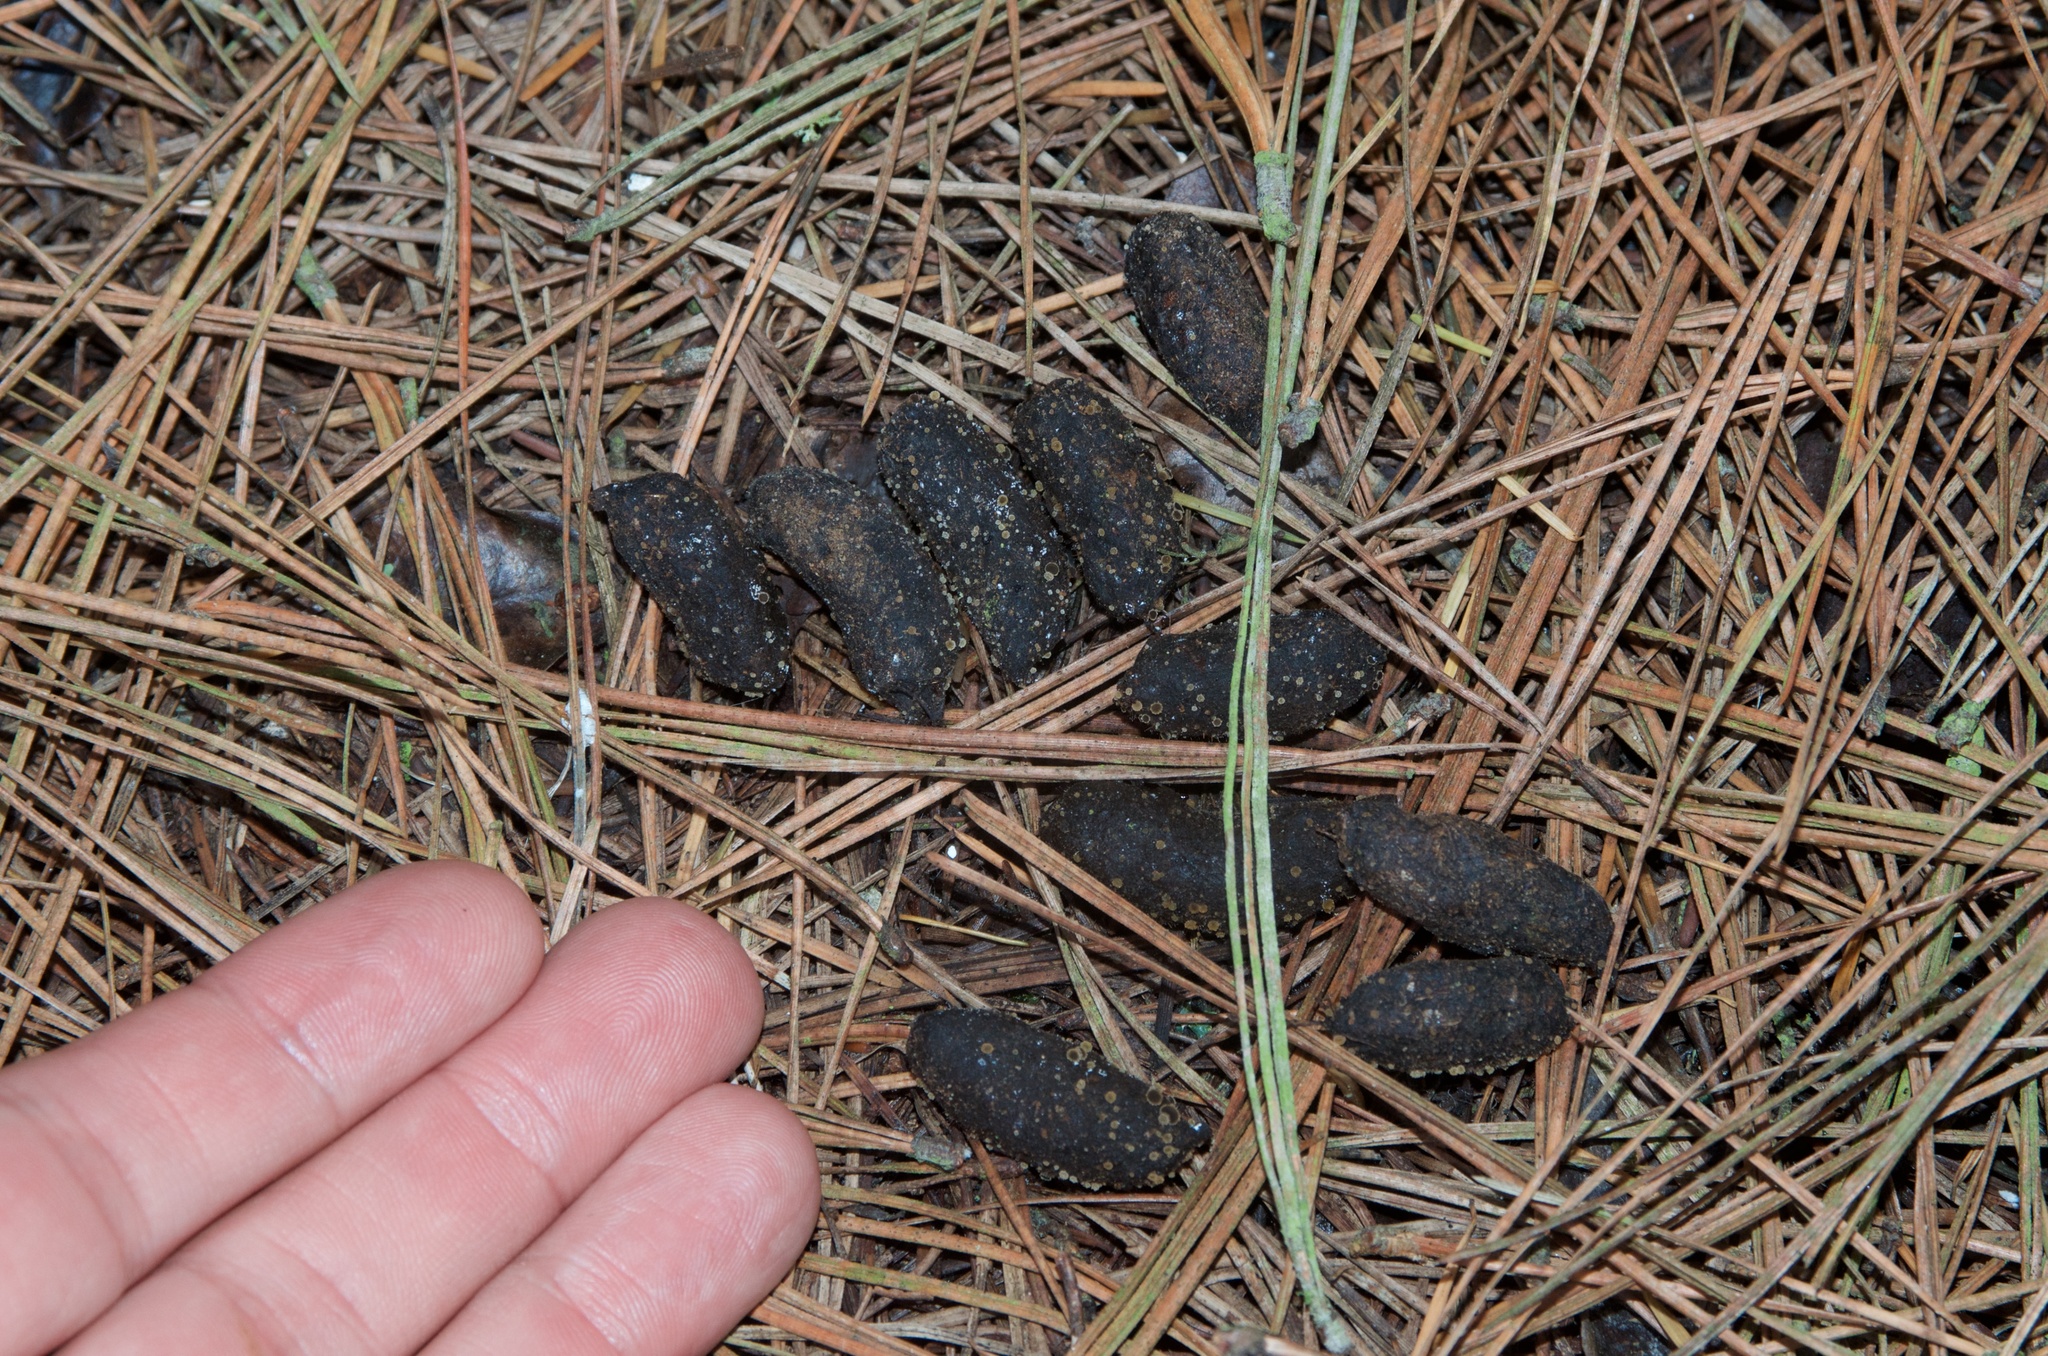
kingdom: Animalia
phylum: Chordata
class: Mammalia
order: Diprotodontia
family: Phalangeridae
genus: Trichosurus
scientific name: Trichosurus vulpecula
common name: Common brushtail
